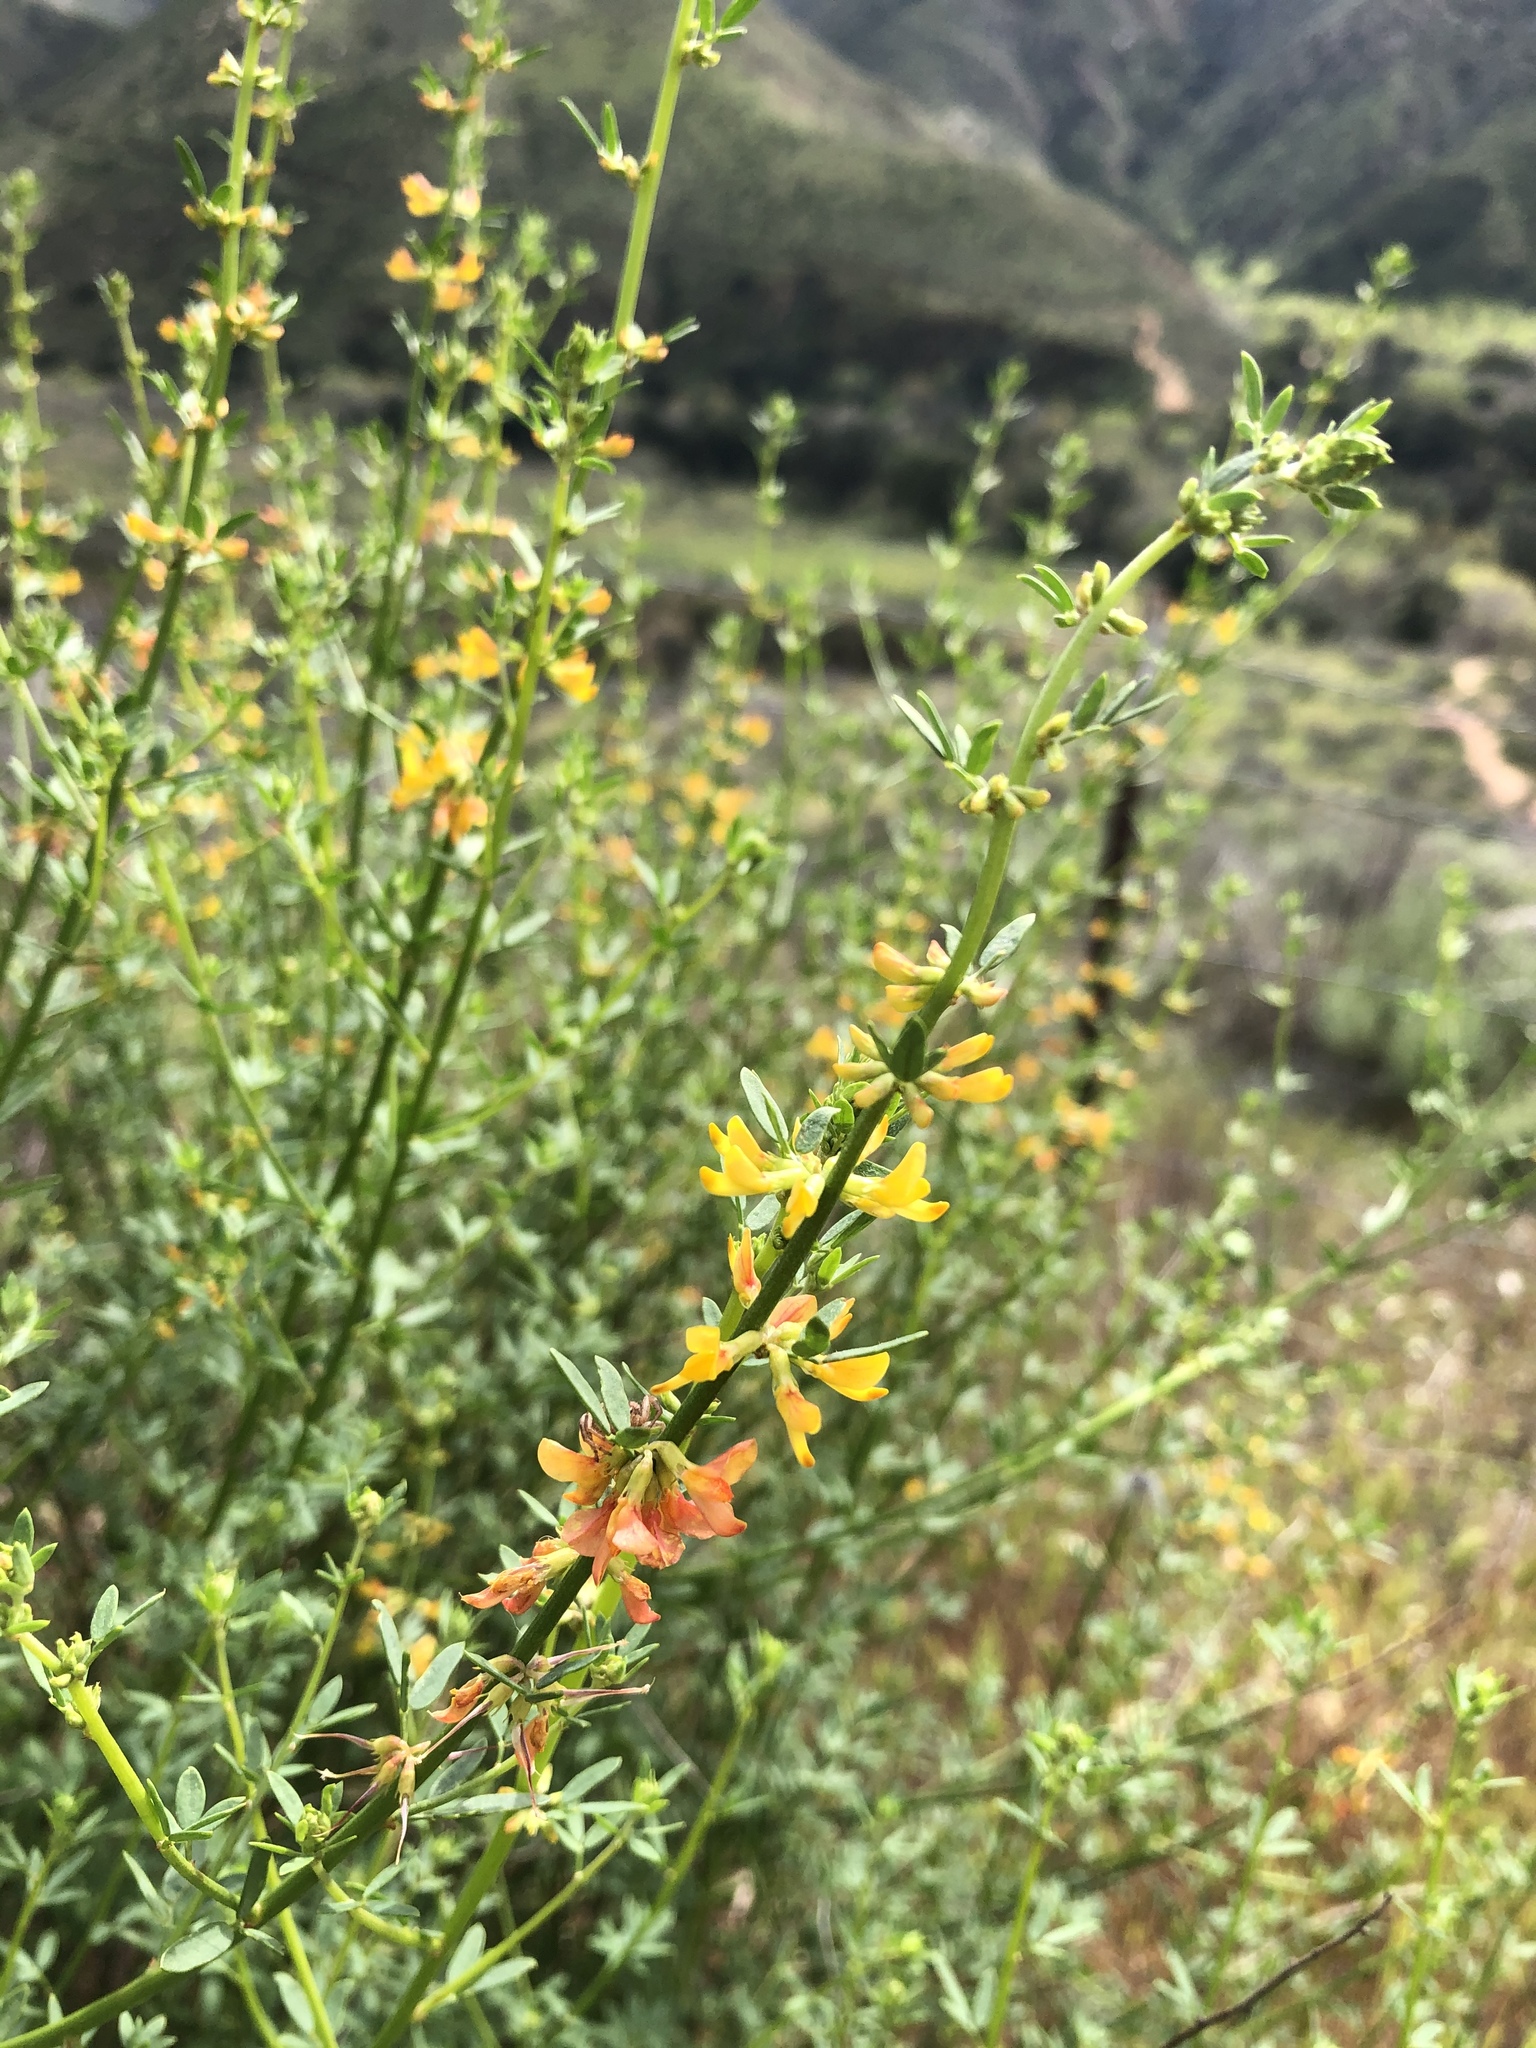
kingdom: Plantae
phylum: Tracheophyta
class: Magnoliopsida
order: Fabales
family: Fabaceae
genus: Acmispon
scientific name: Acmispon glaber
